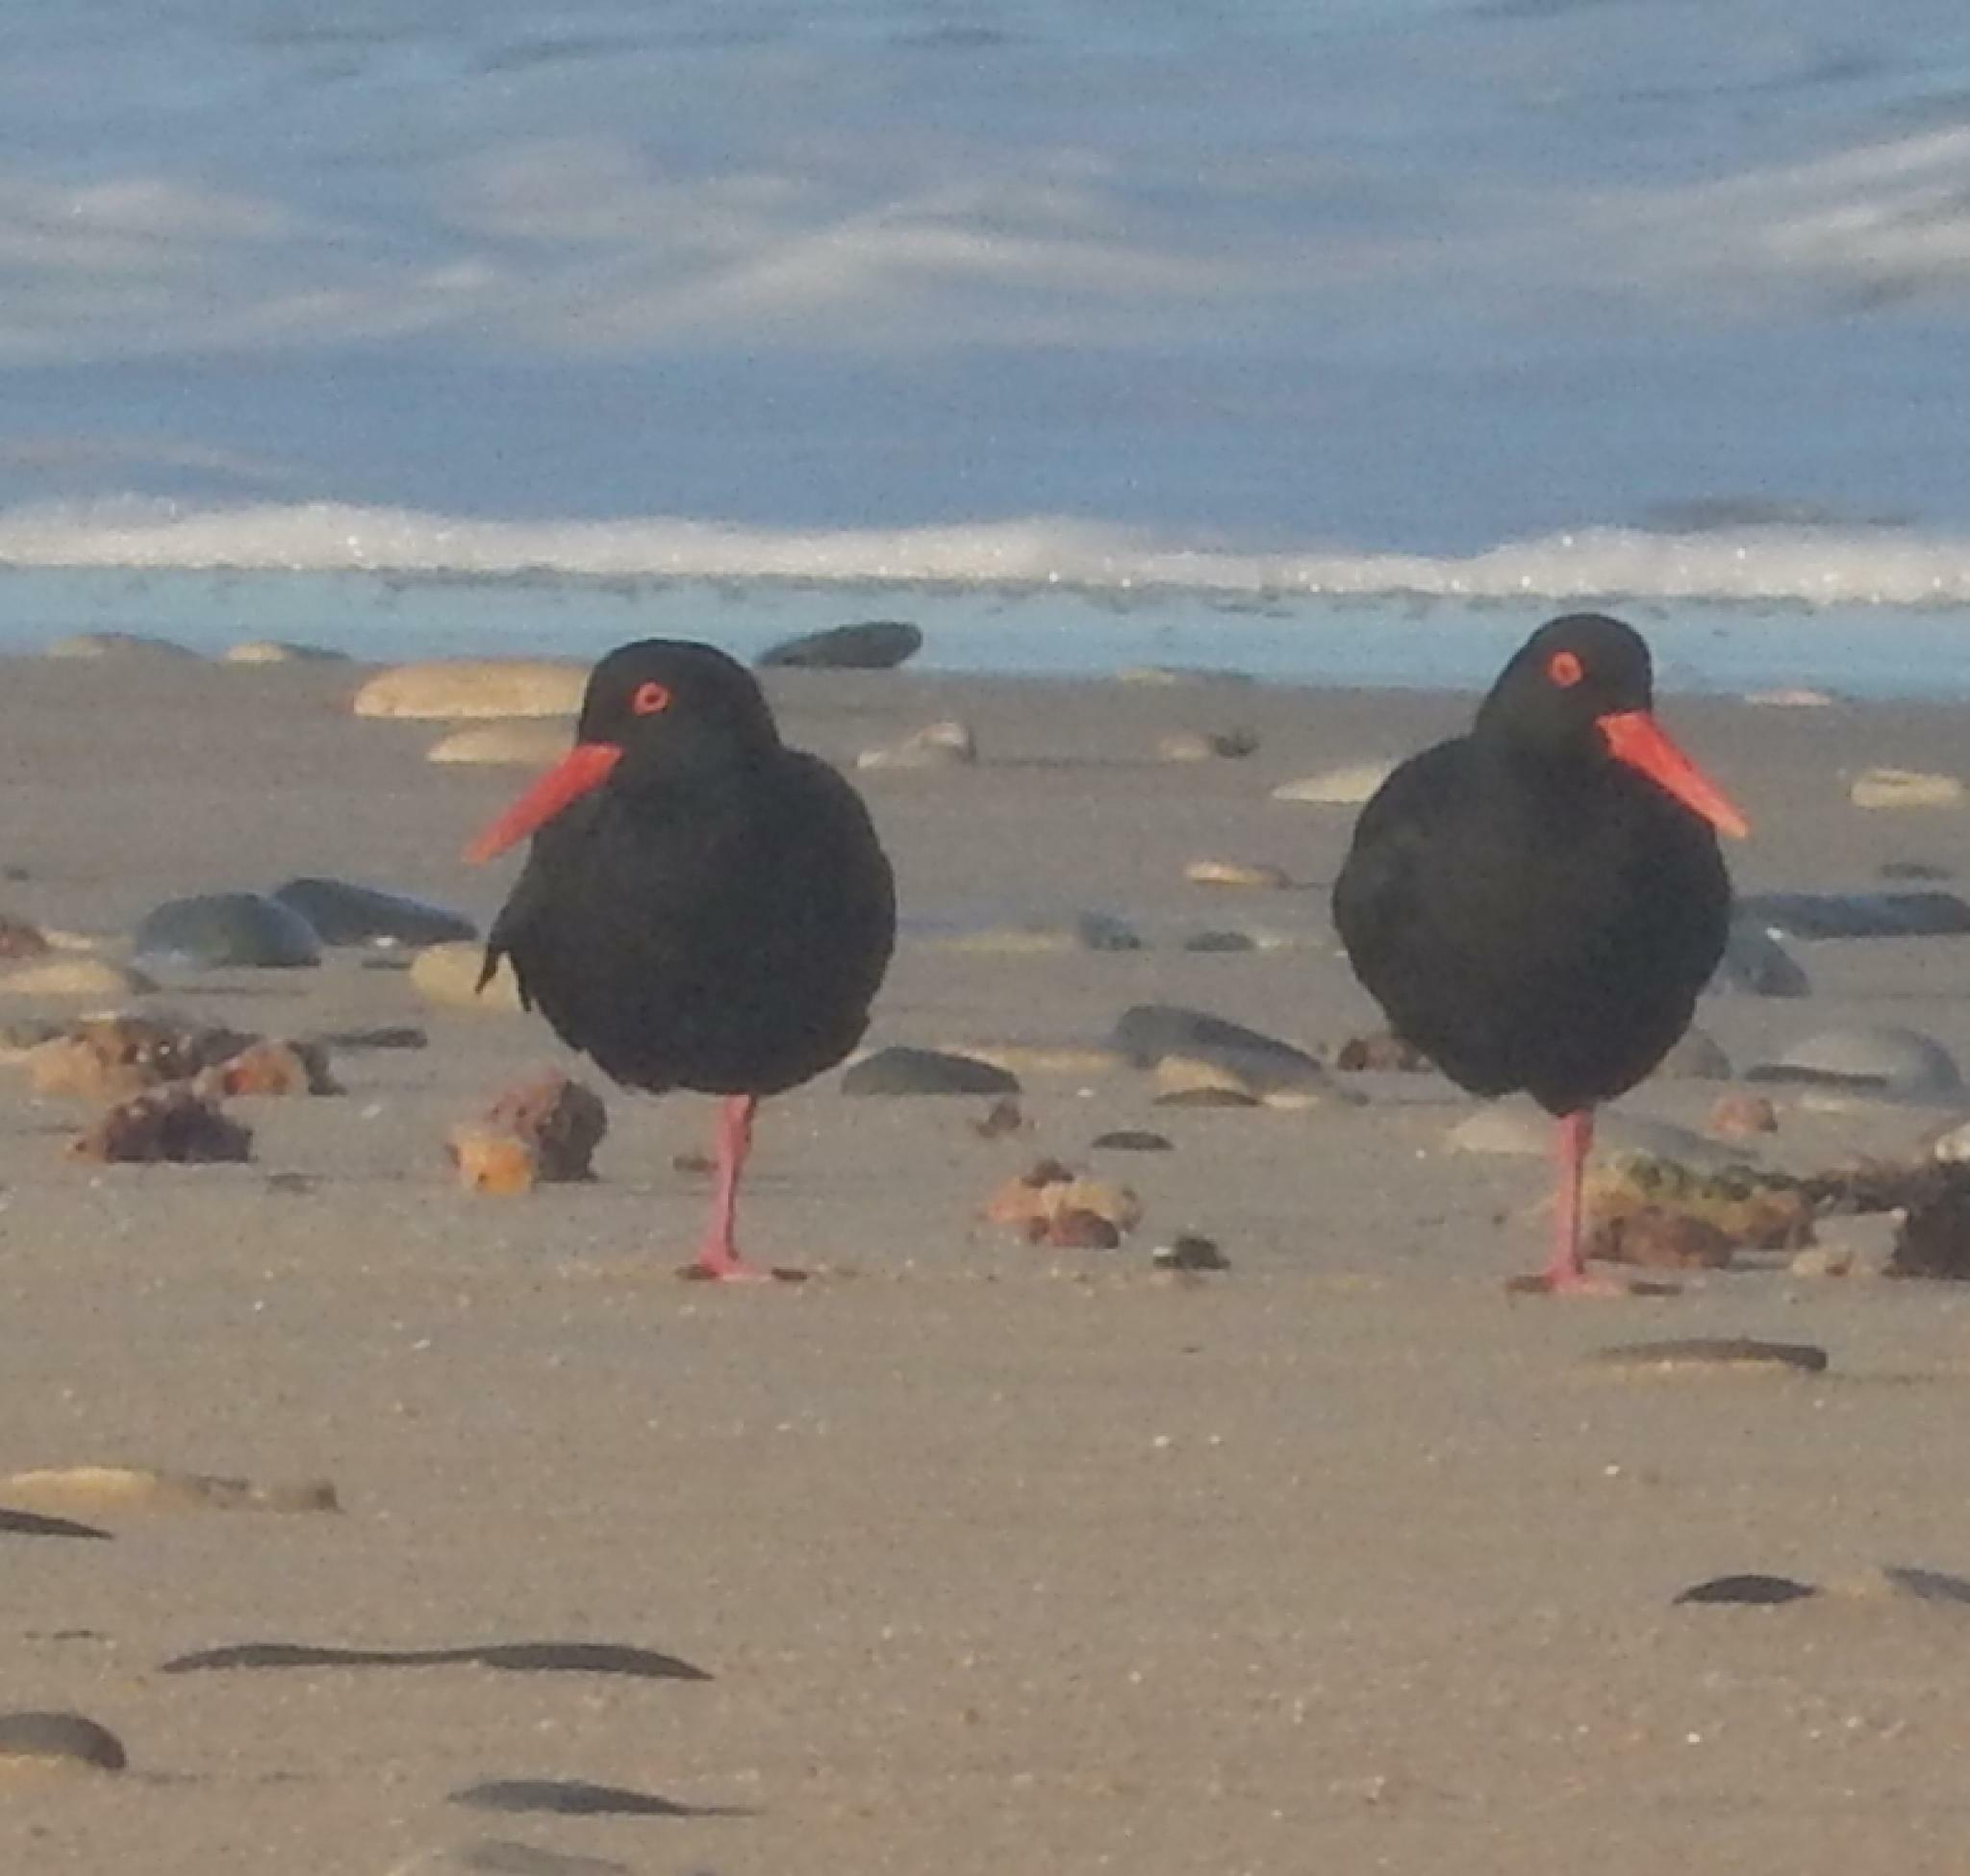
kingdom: Animalia
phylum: Chordata
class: Aves
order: Charadriiformes
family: Haematopodidae
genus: Haematopus
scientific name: Haematopus moquini
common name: African oystercatcher
